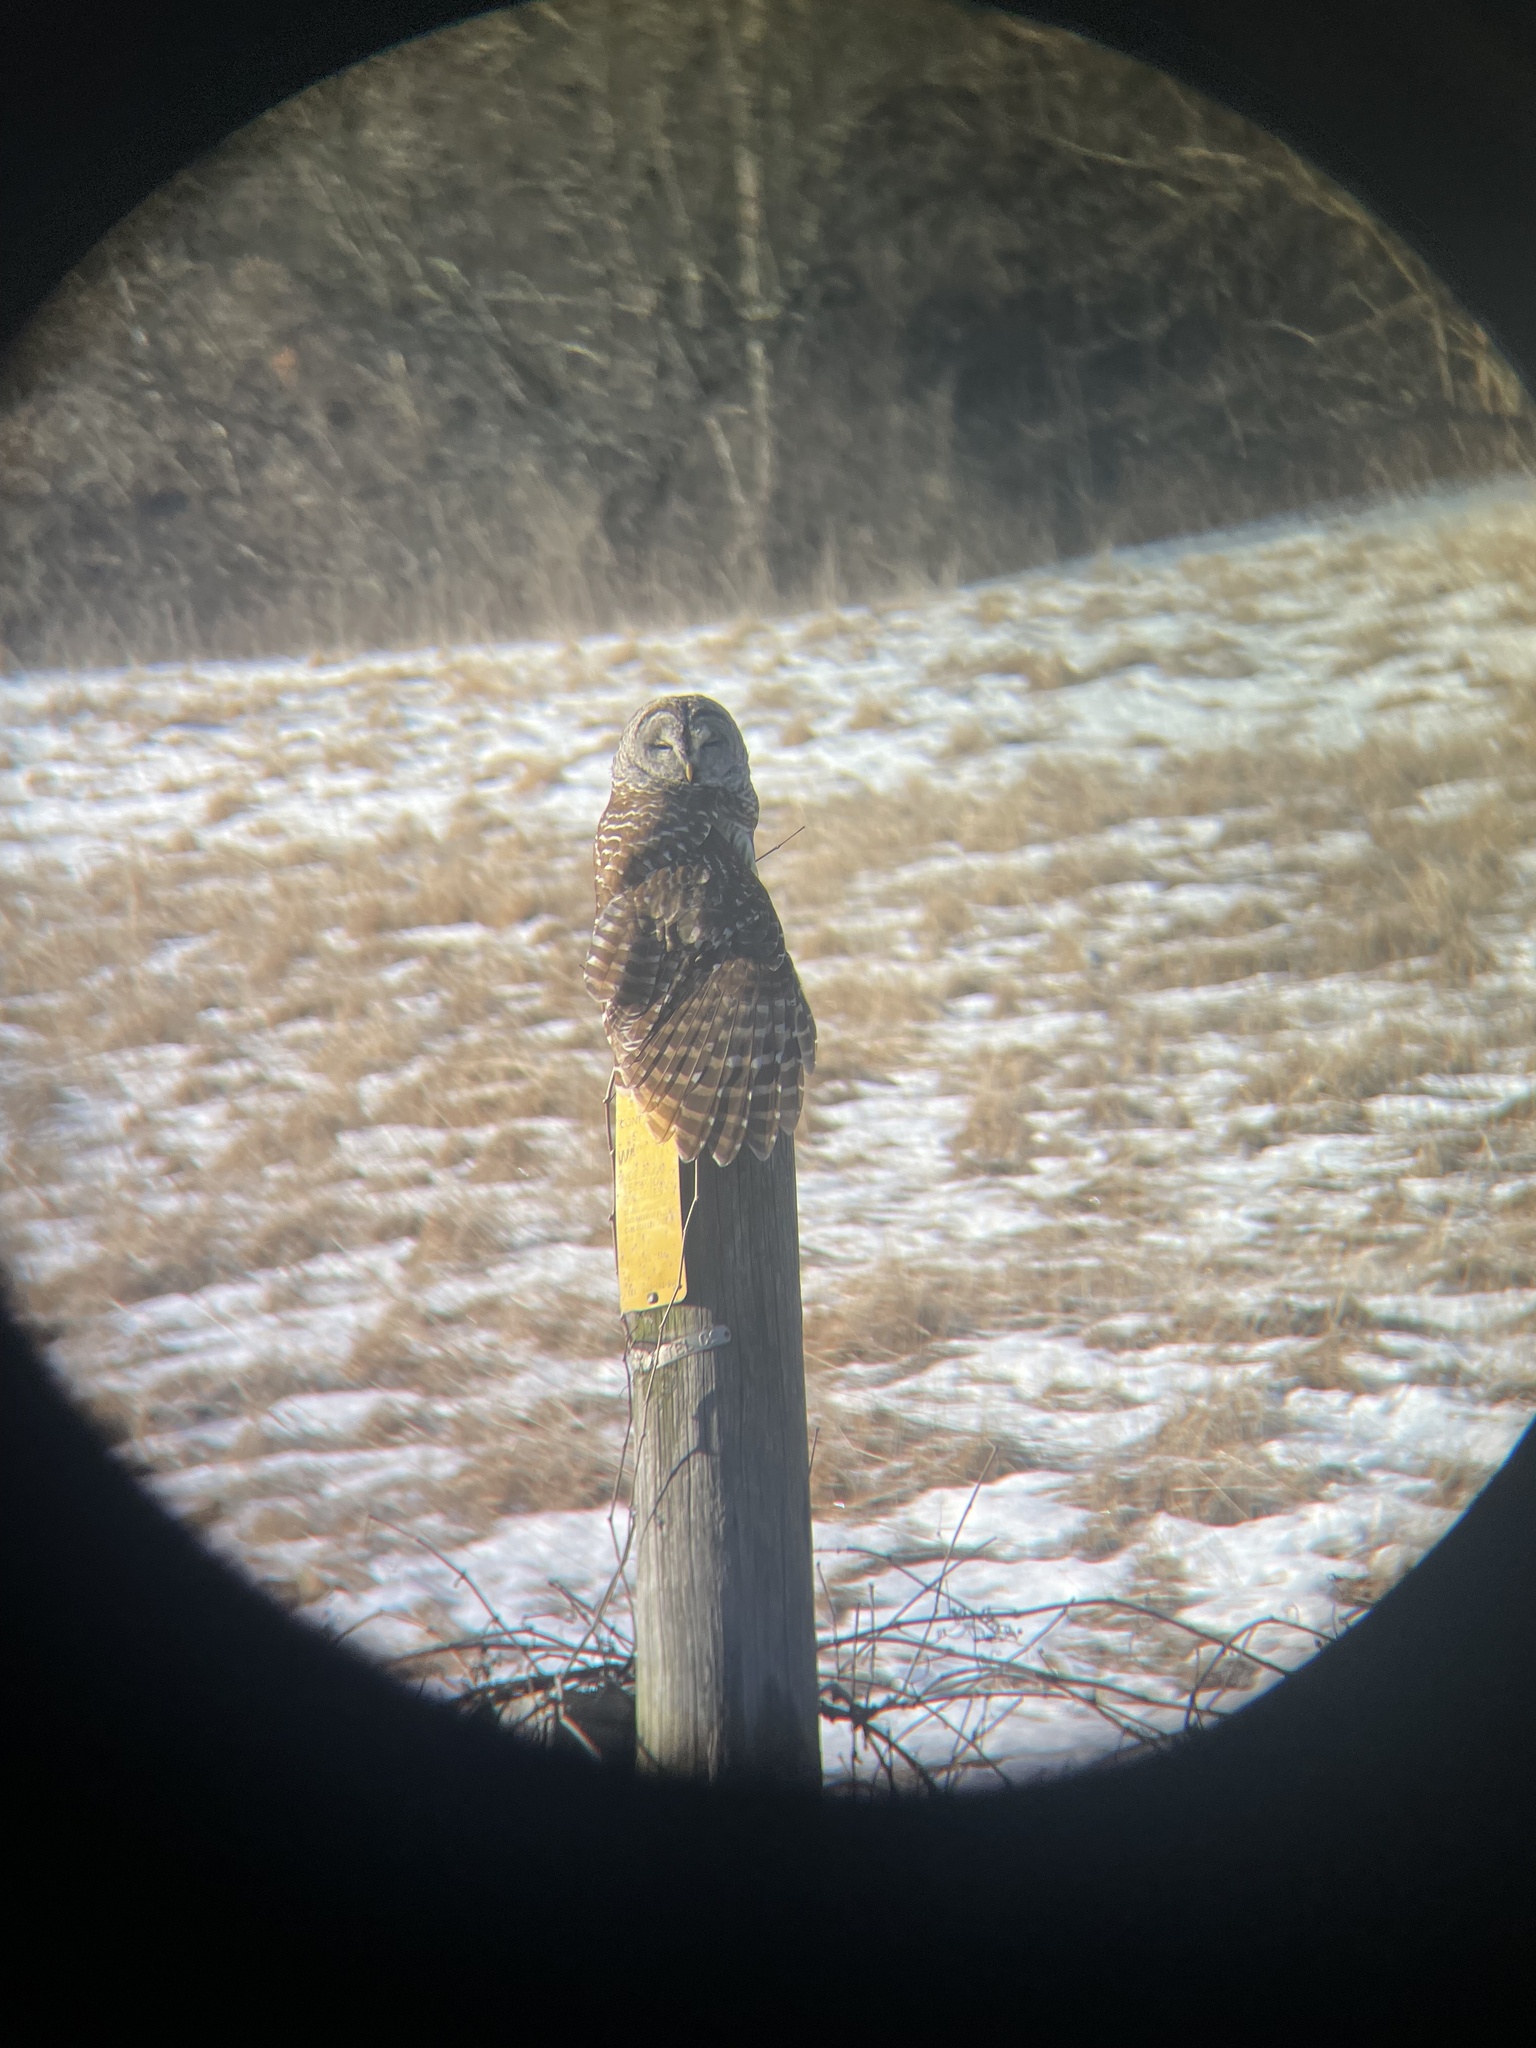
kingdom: Animalia
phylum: Chordata
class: Aves
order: Strigiformes
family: Strigidae
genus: Strix
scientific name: Strix varia
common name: Barred owl
